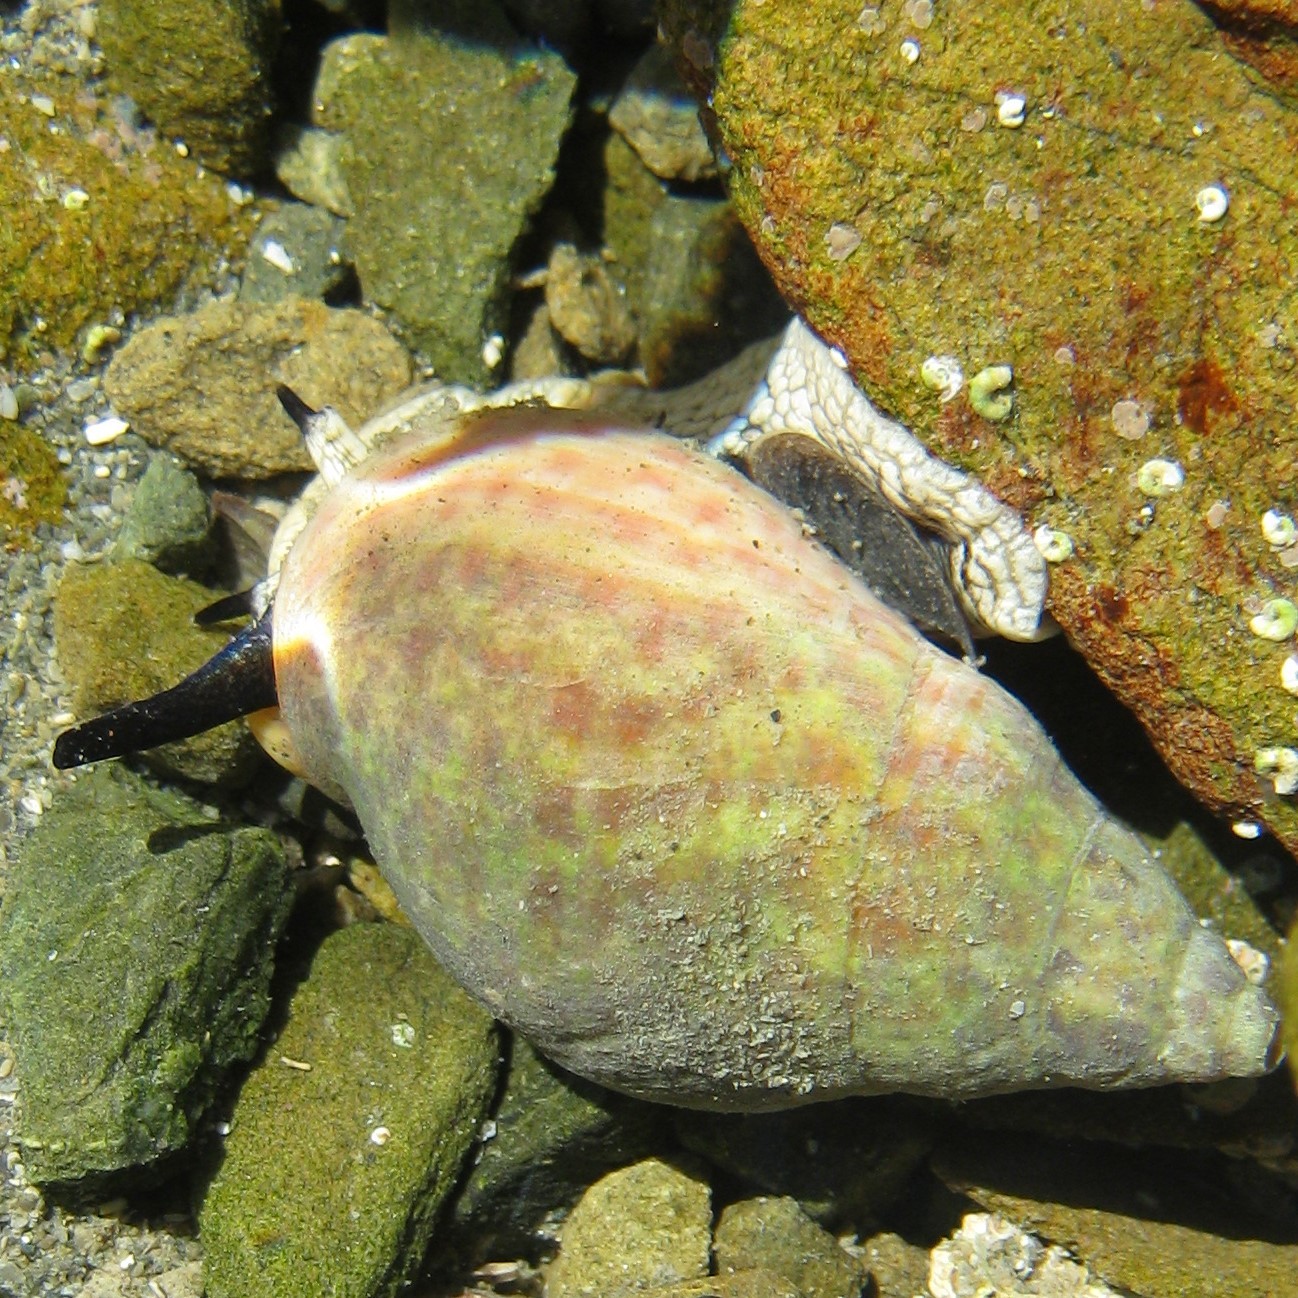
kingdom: Animalia
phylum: Mollusca
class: Gastropoda
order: Neogastropoda
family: Cominellidae
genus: Cominella
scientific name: Cominella maculosa
